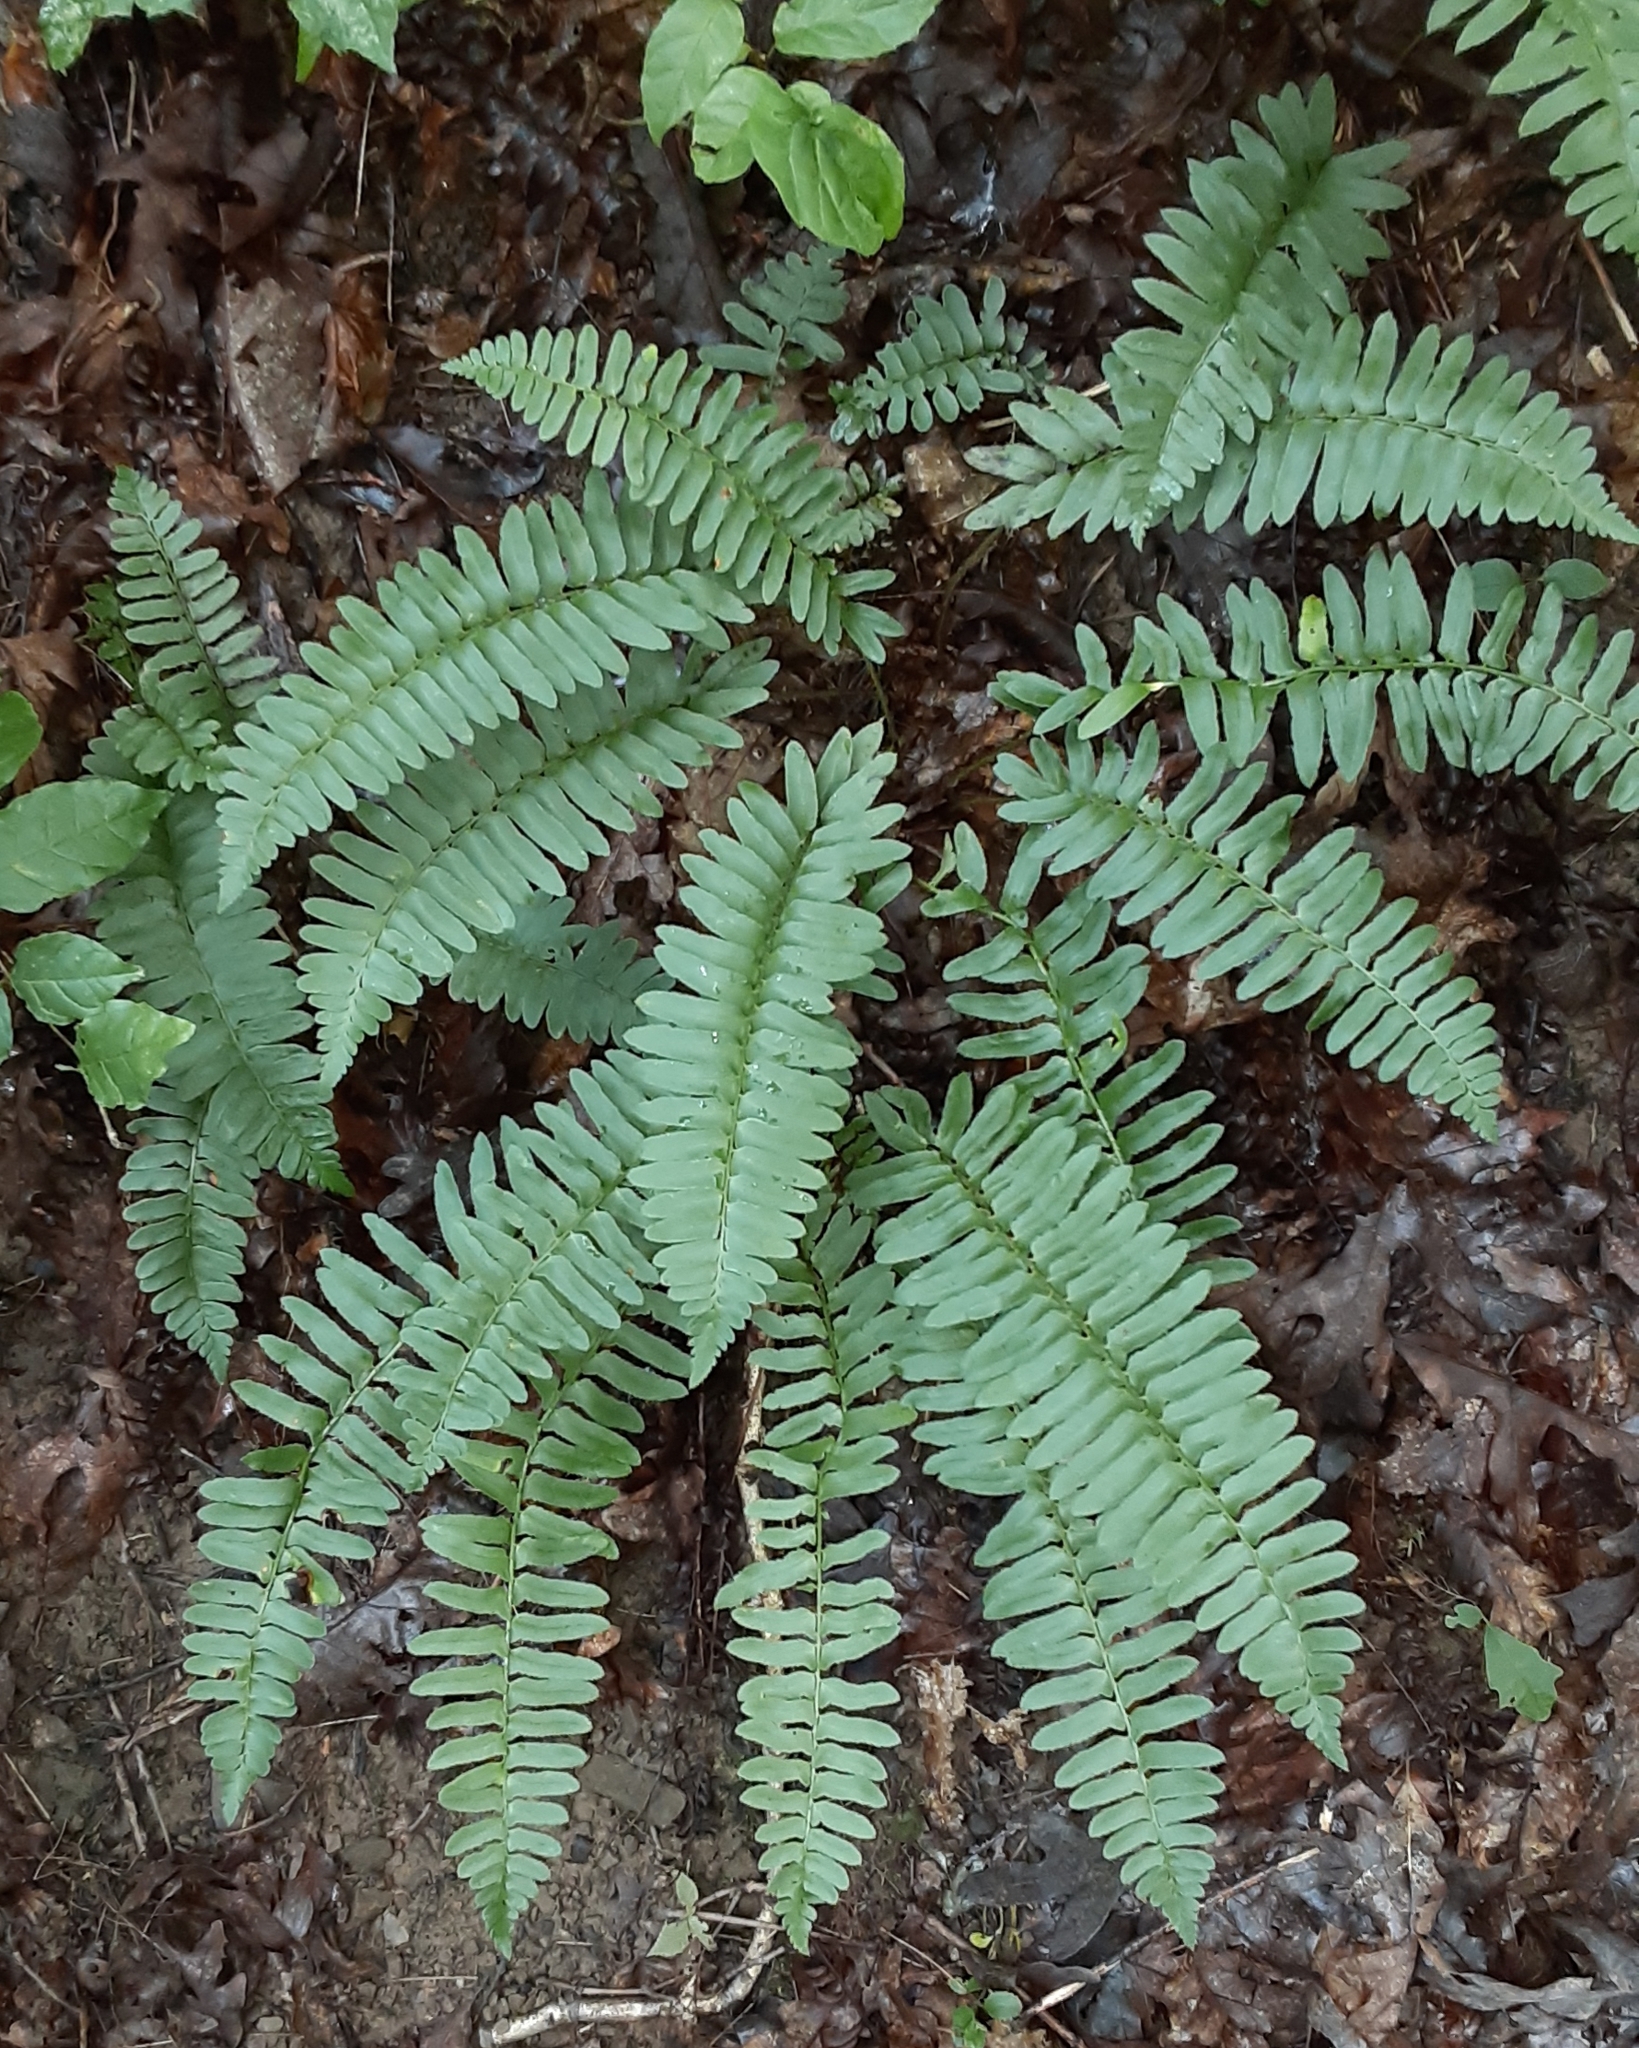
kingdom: Plantae
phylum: Tracheophyta
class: Polypodiopsida
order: Polypodiales
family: Dryopteridaceae
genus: Polystichum
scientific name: Polystichum acrostichoides
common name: Christmas fern
